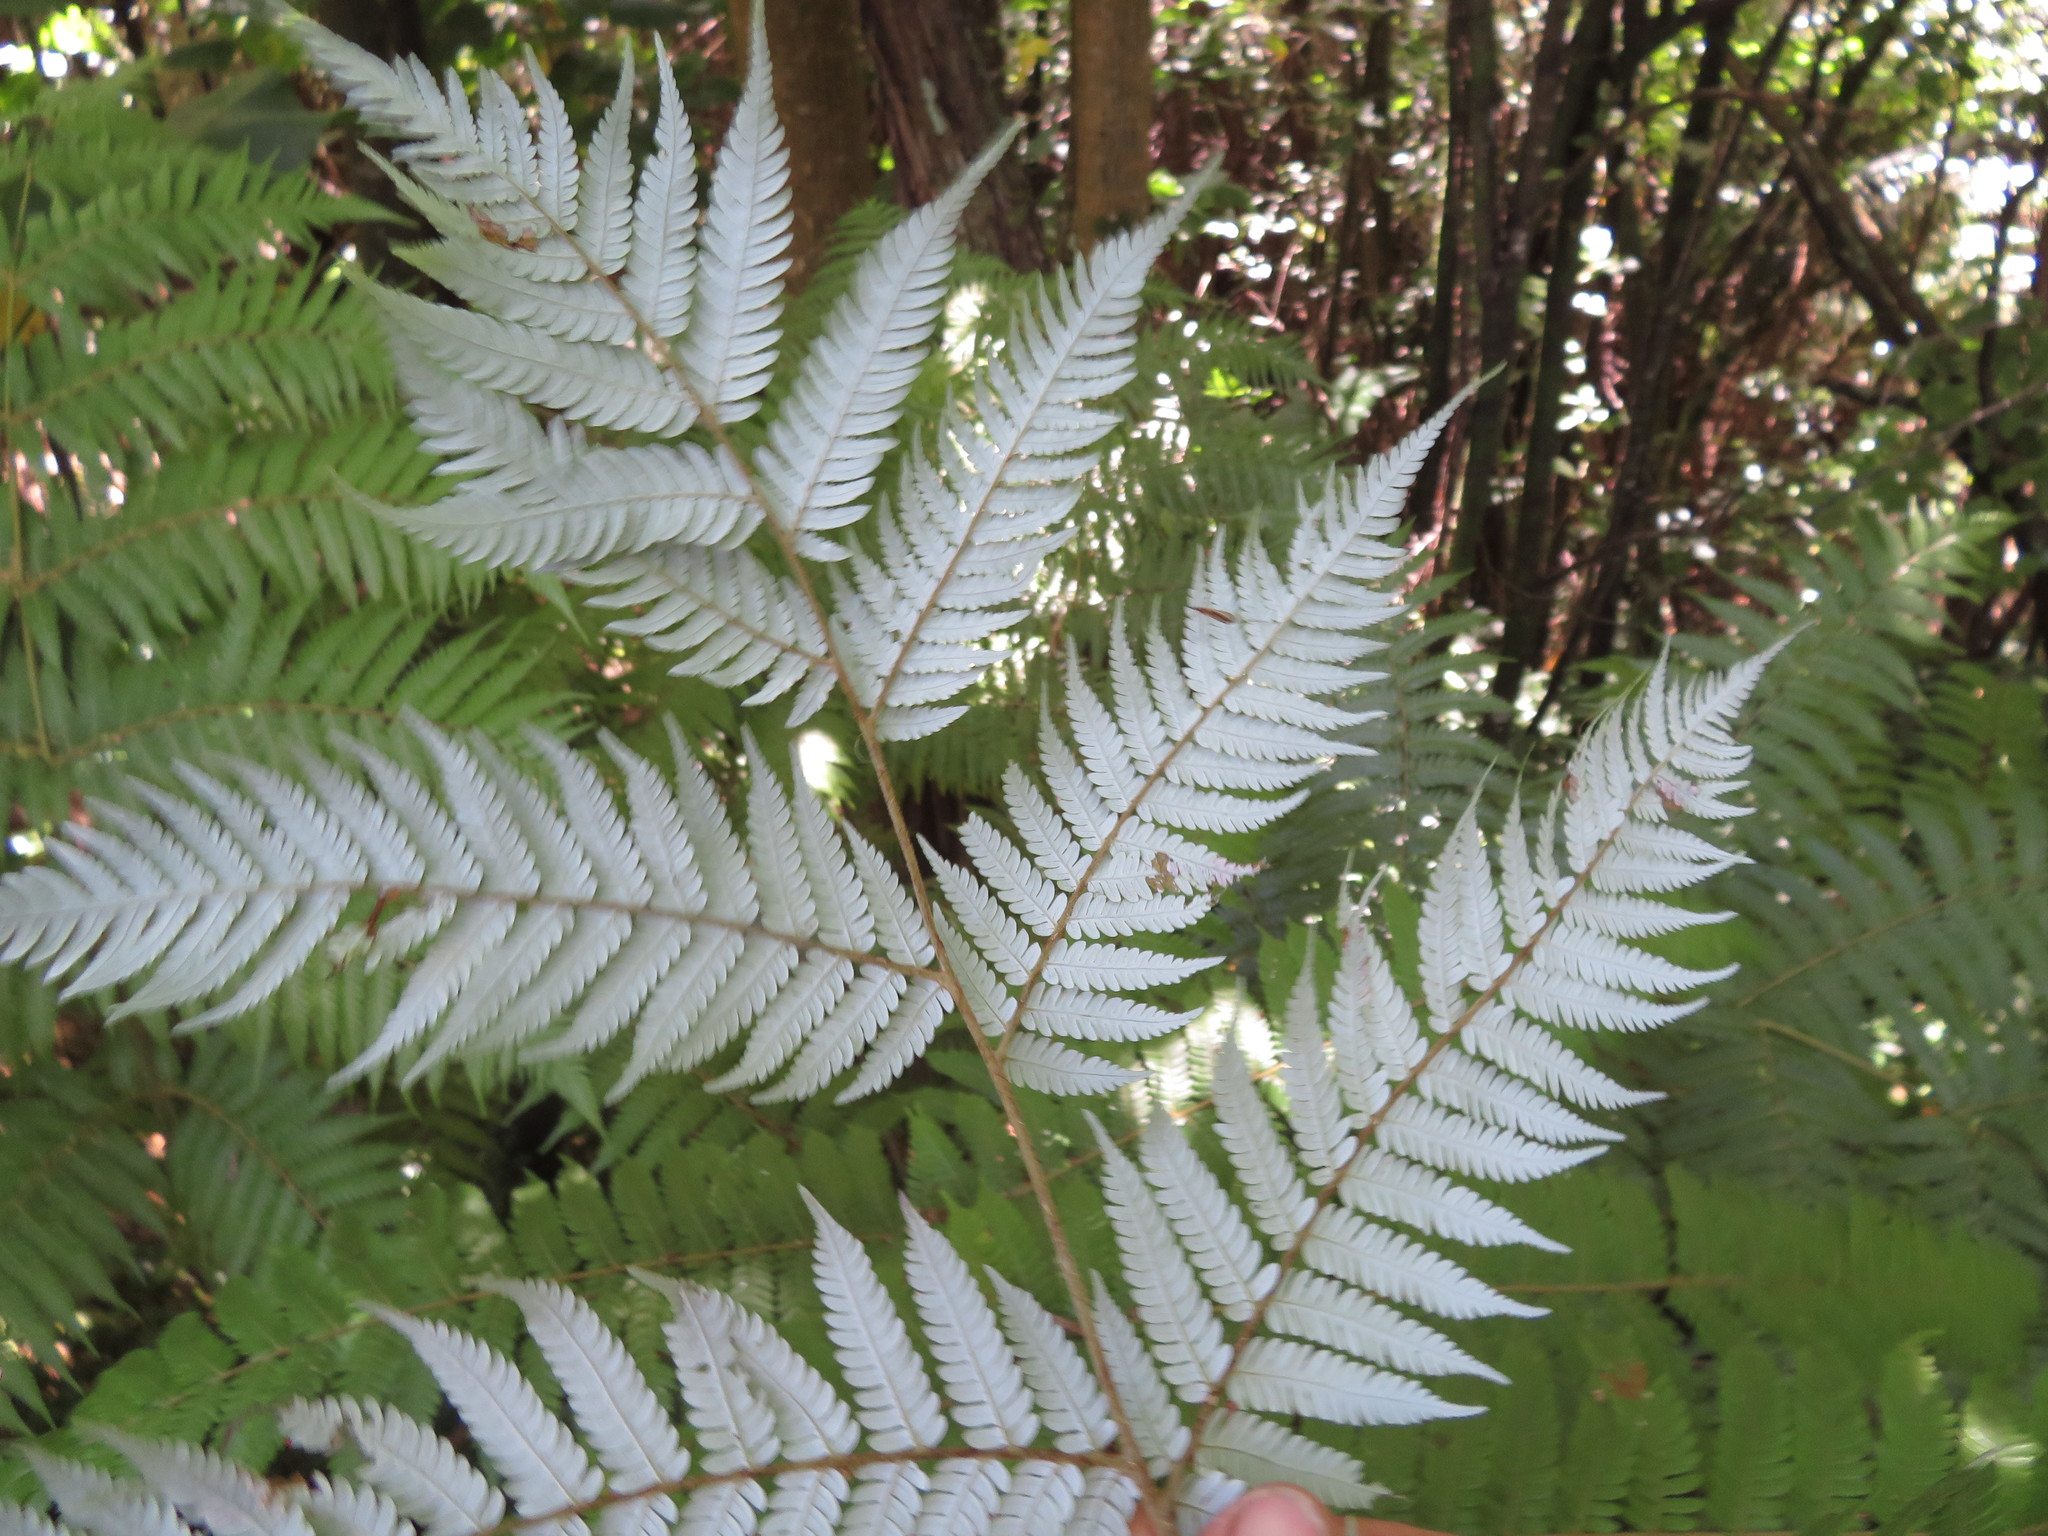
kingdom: Plantae
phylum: Tracheophyta
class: Polypodiopsida
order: Cyatheales
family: Cyatheaceae
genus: Alsophila
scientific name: Alsophila dealbata
